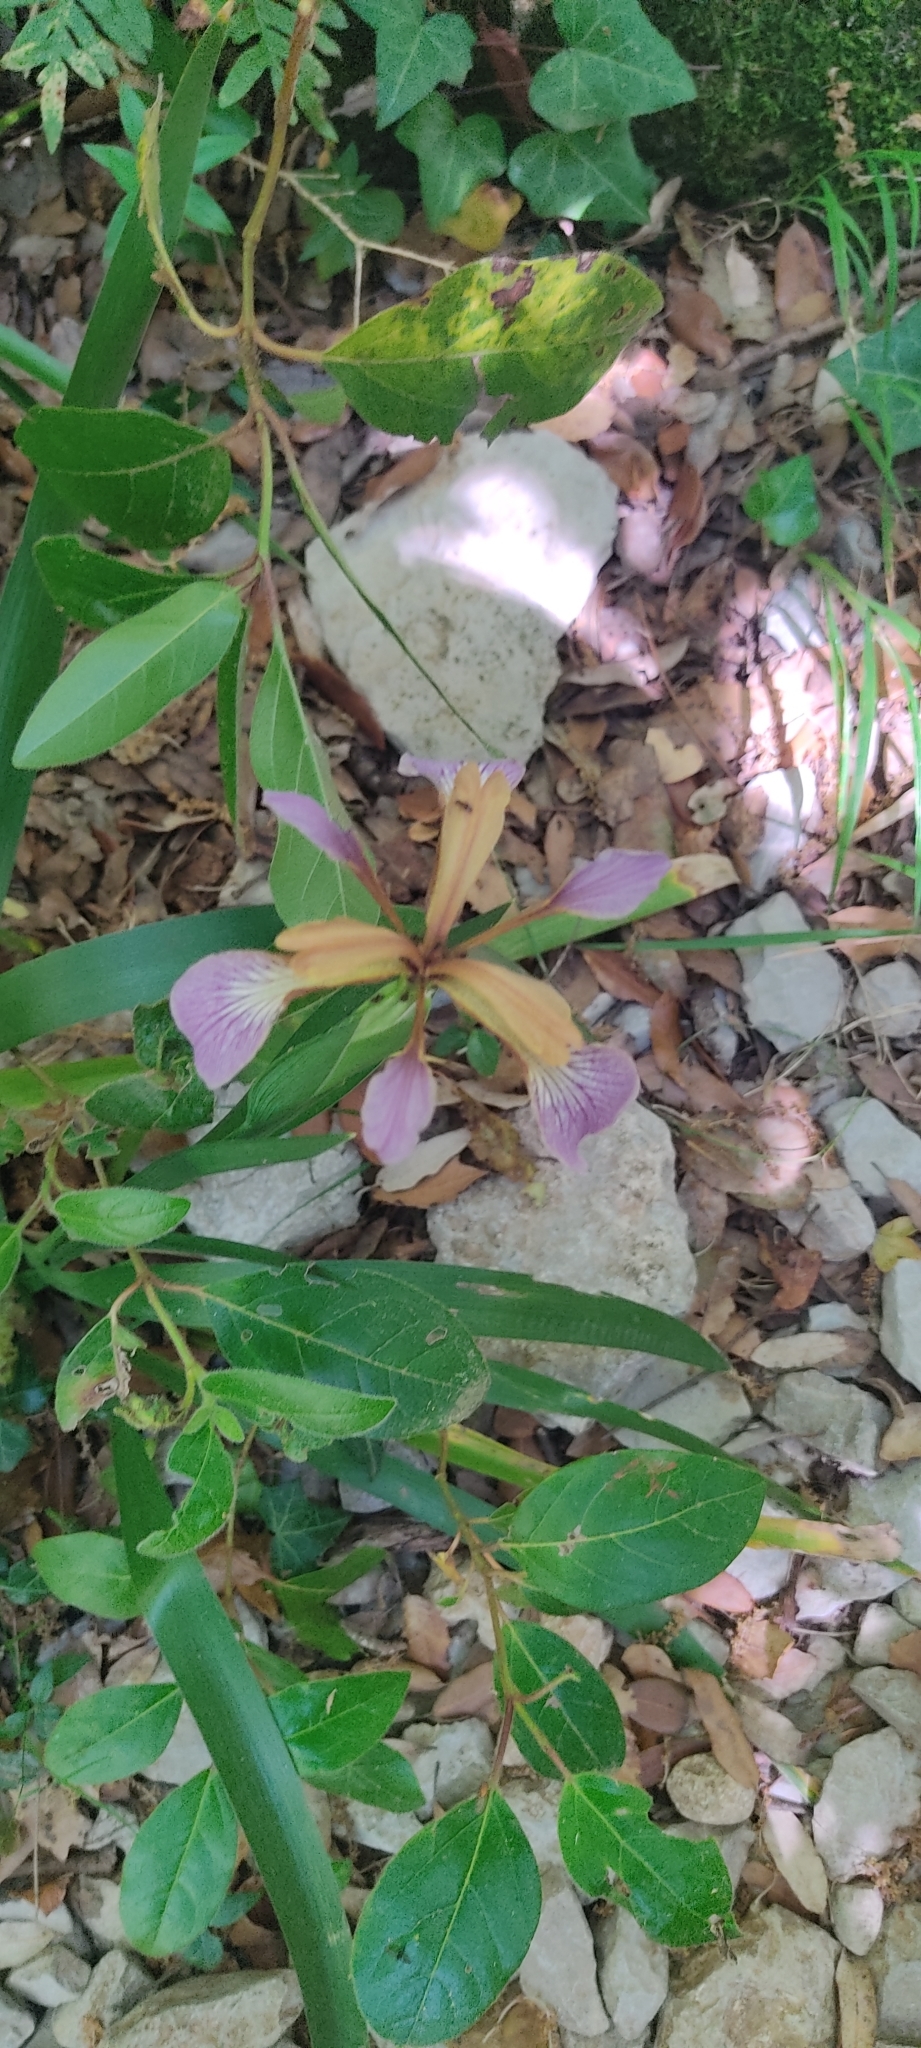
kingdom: Plantae
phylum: Tracheophyta
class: Liliopsida
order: Asparagales
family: Iridaceae
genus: Iris
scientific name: Iris foetidissima
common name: Stinking iris
